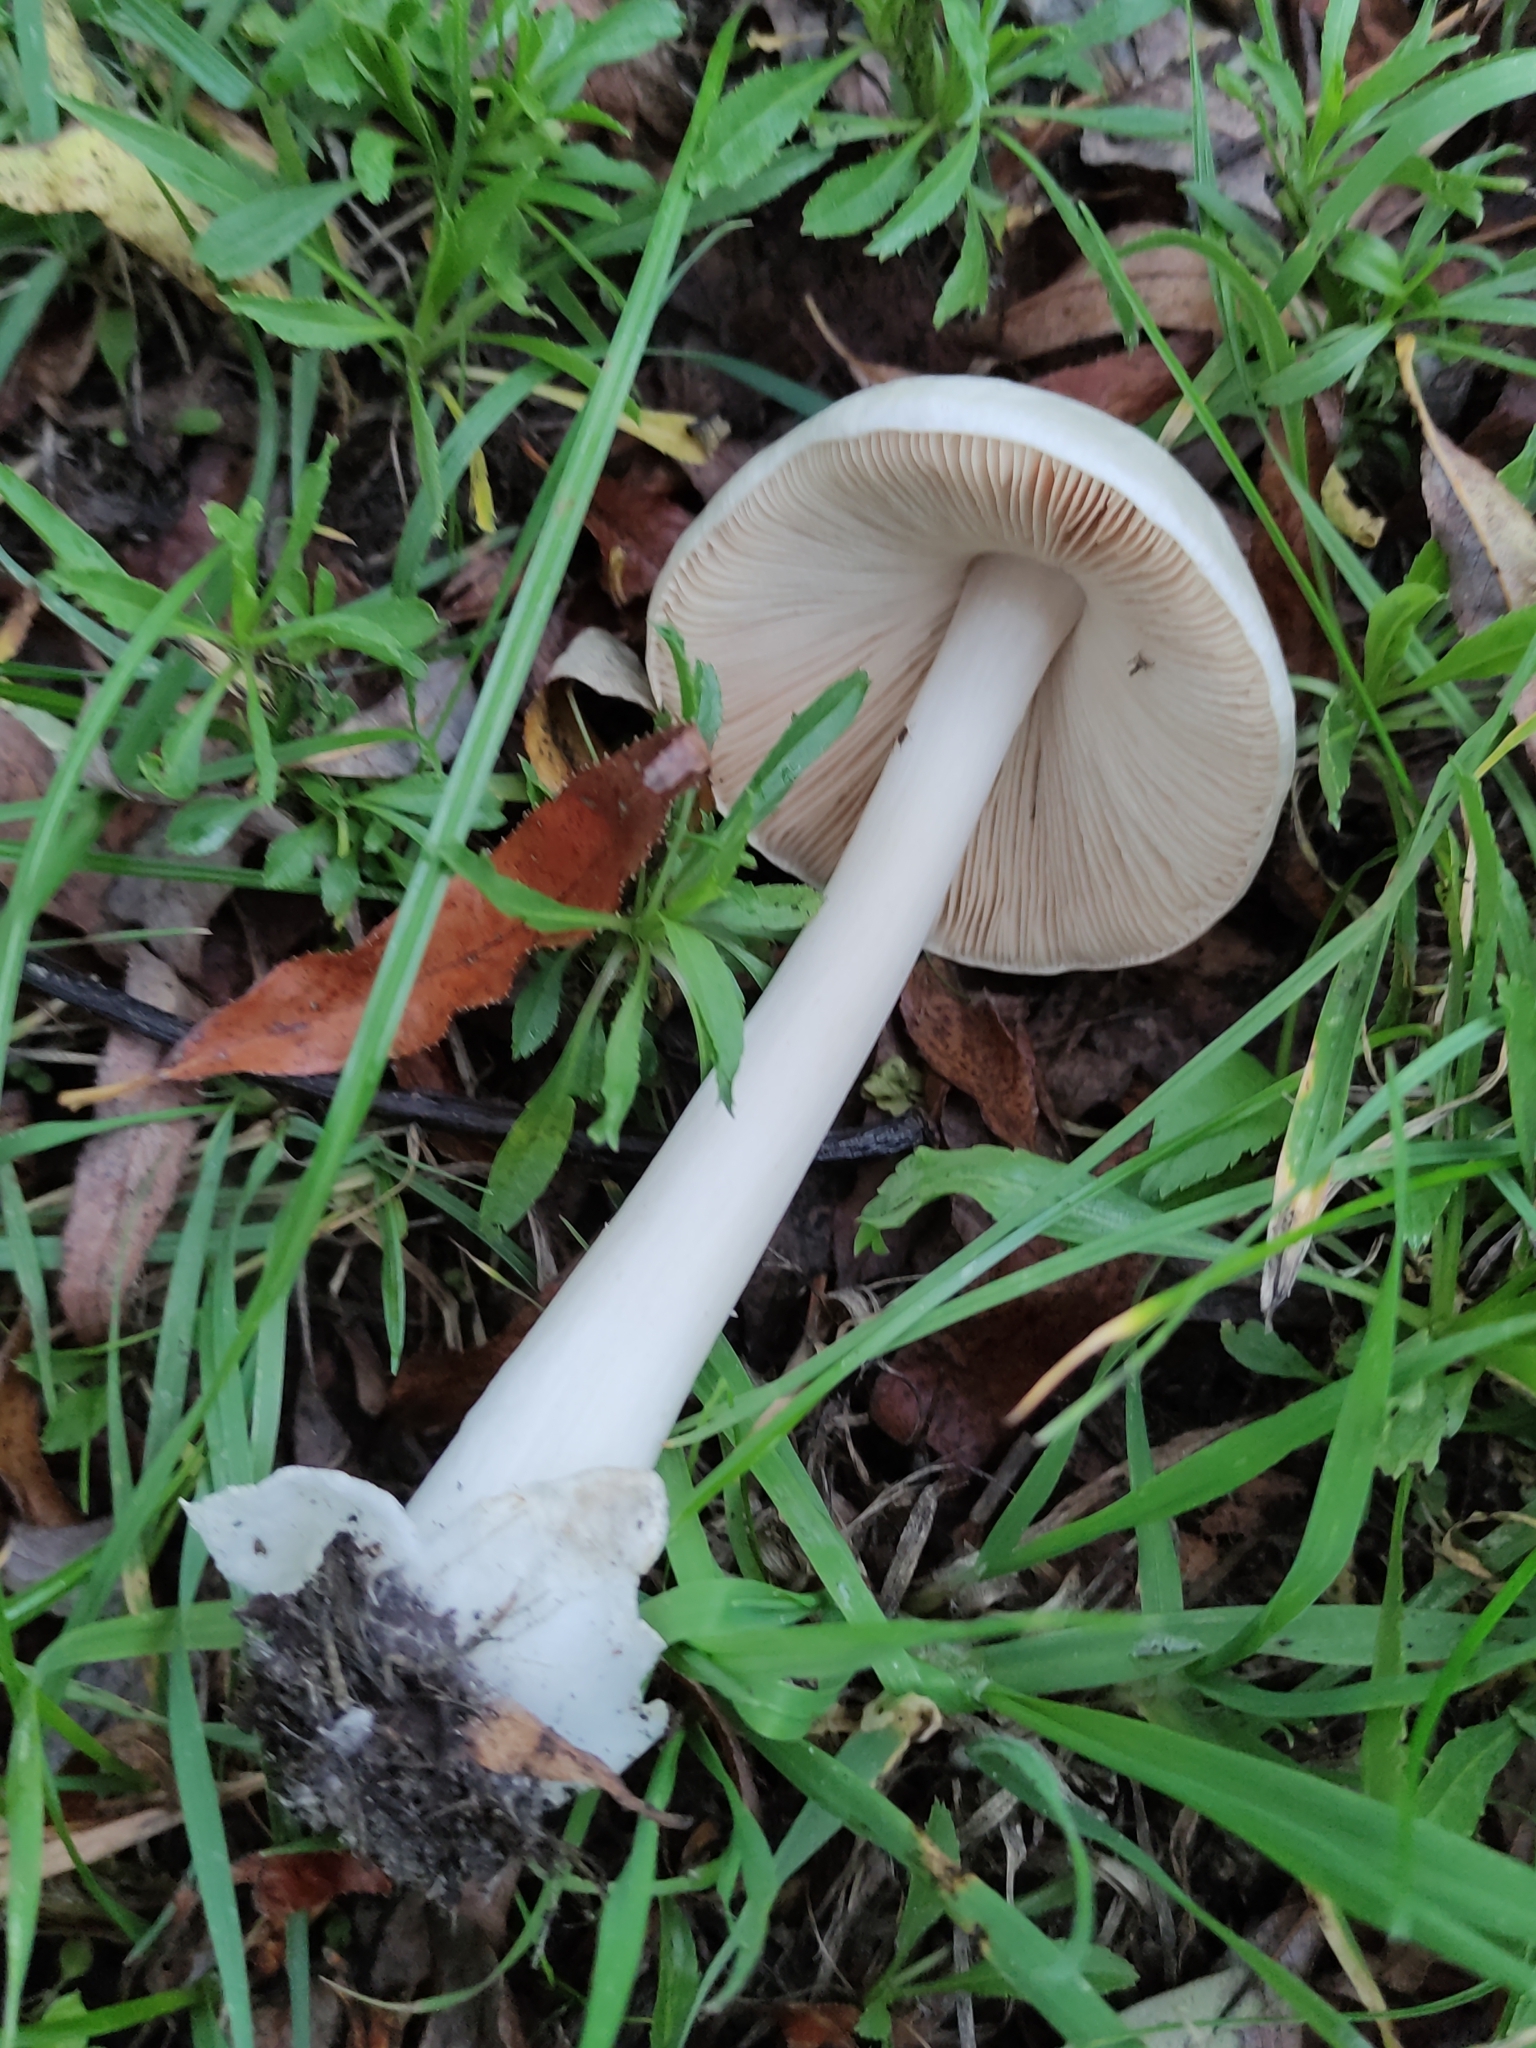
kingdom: Fungi
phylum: Basidiomycota
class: Agaricomycetes
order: Agaricales
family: Pluteaceae
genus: Volvopluteus
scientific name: Volvopluteus gloiocephalus
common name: Stubble rosegill
